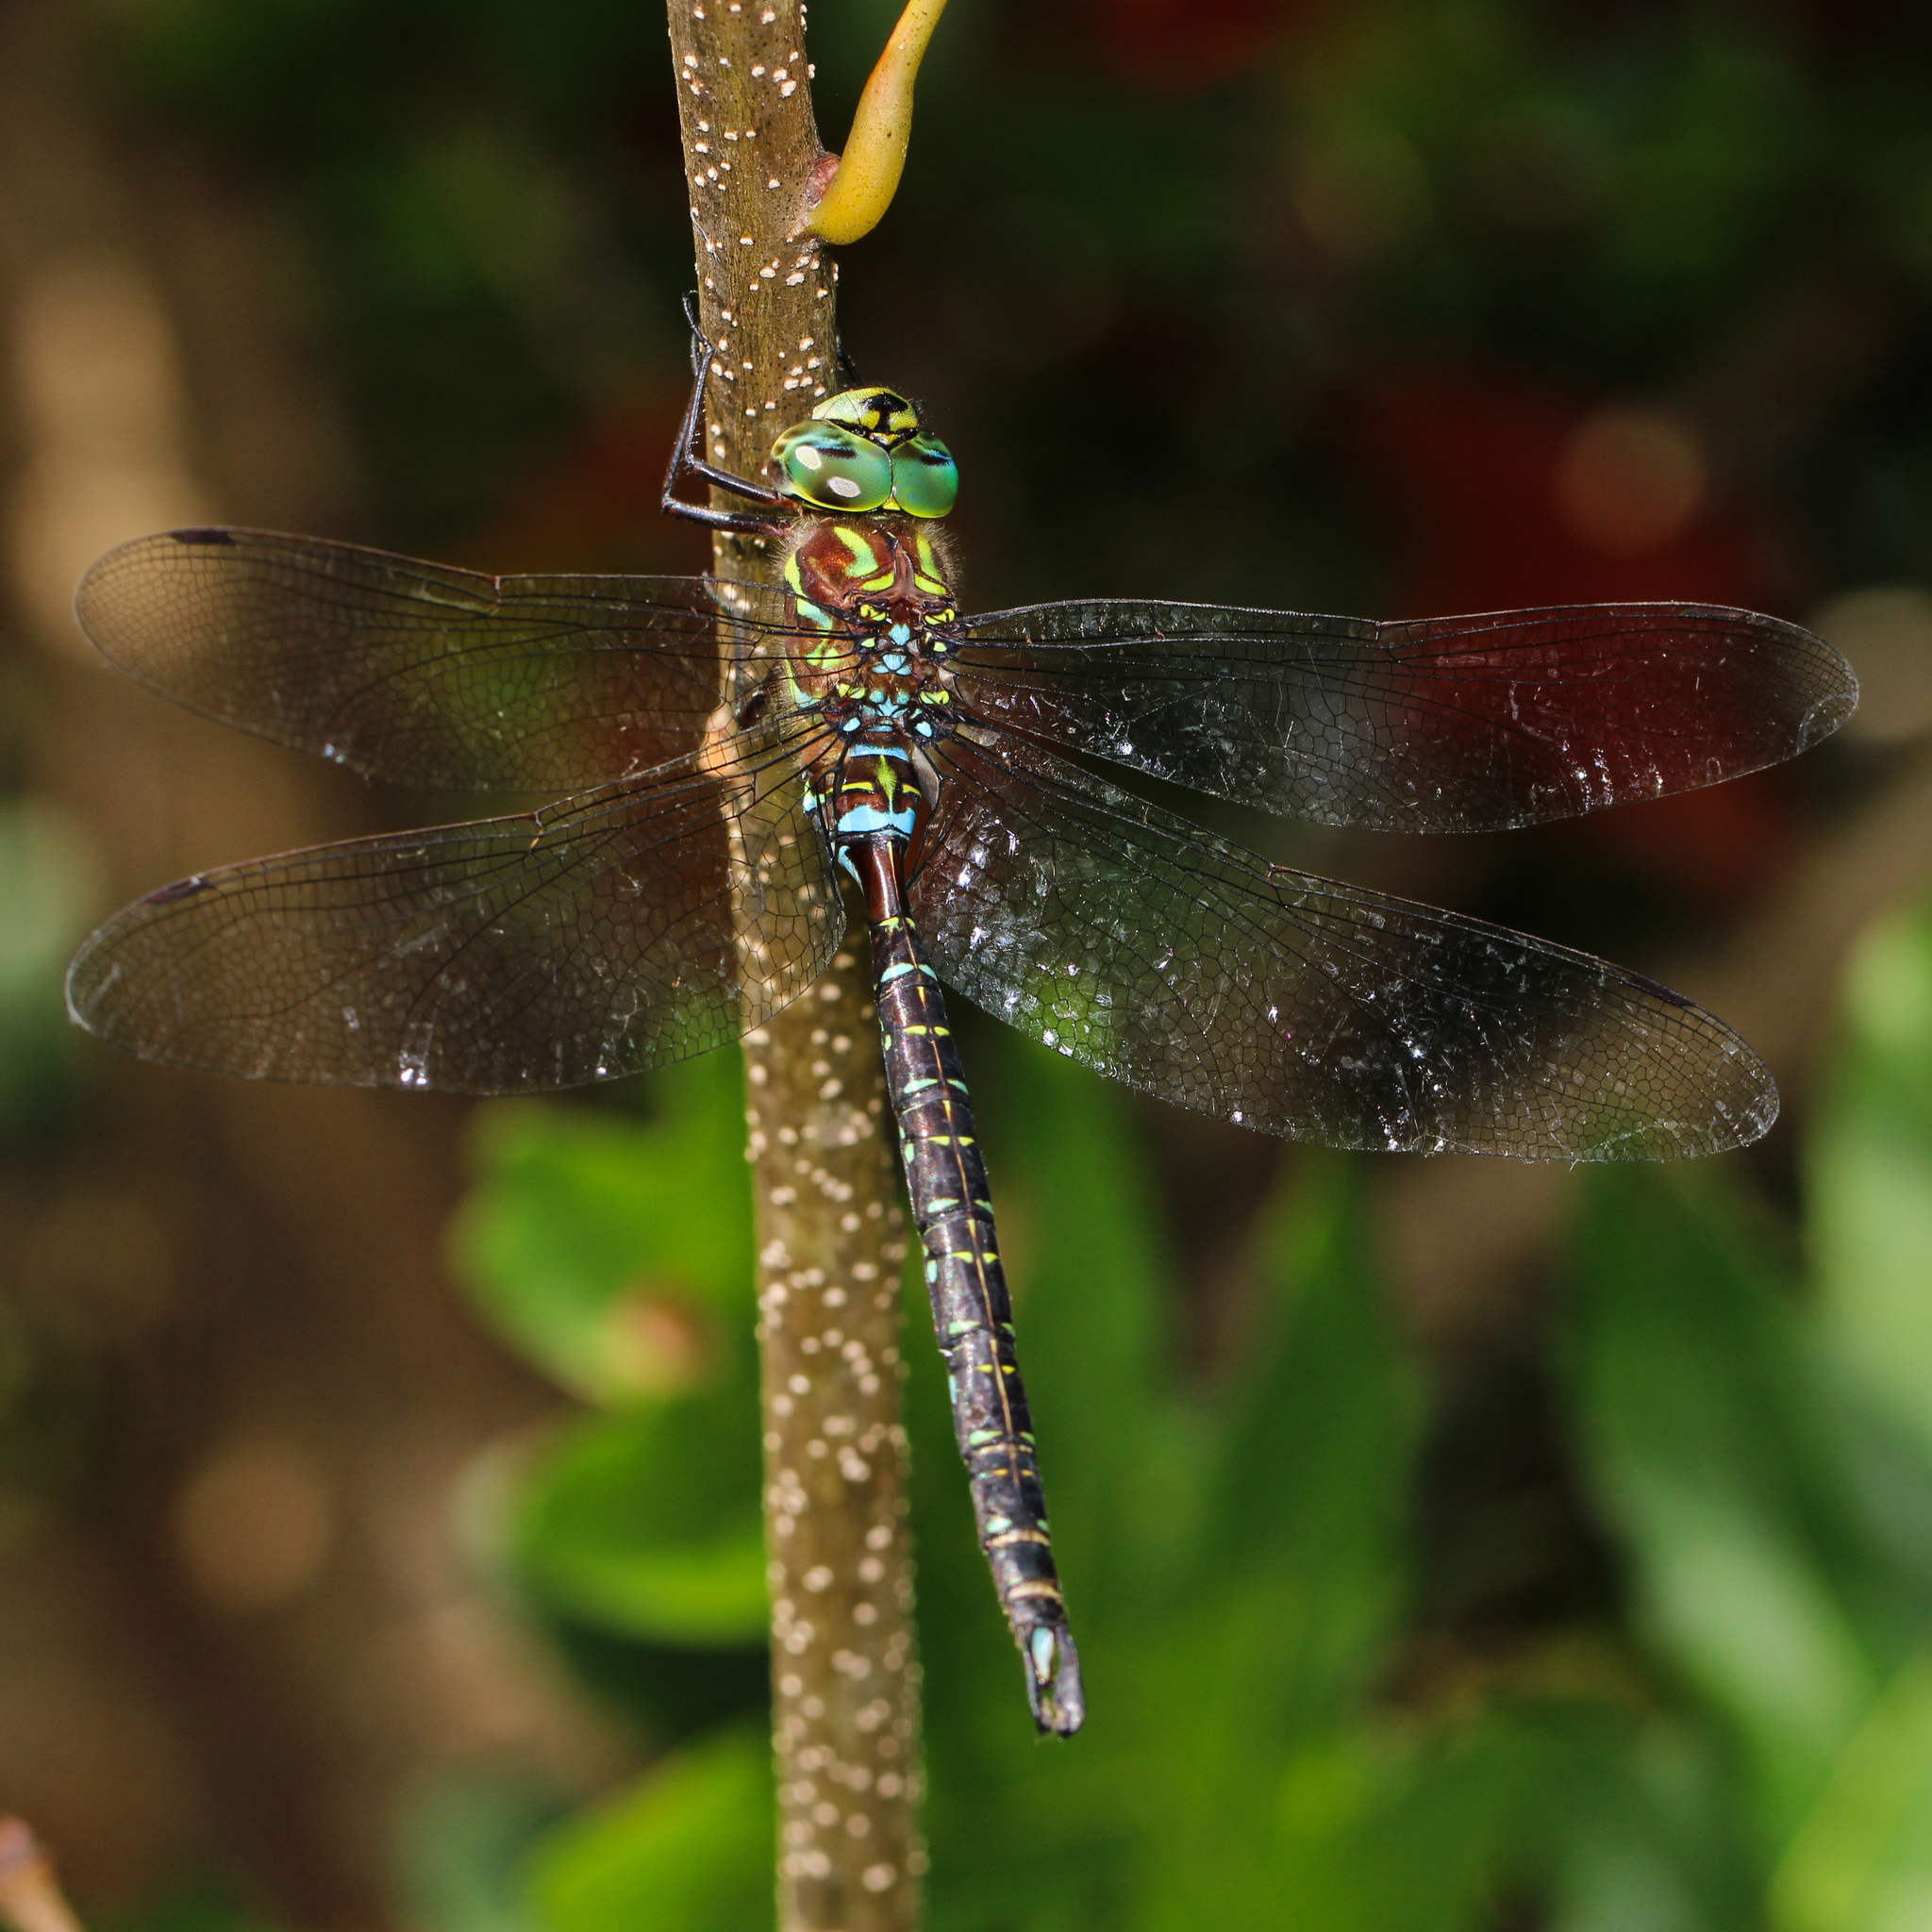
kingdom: Animalia
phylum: Arthropoda
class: Insecta
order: Odonata
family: Aeshnidae
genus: Aeshna
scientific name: Aeshna umbrosa
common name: Shadow darner
